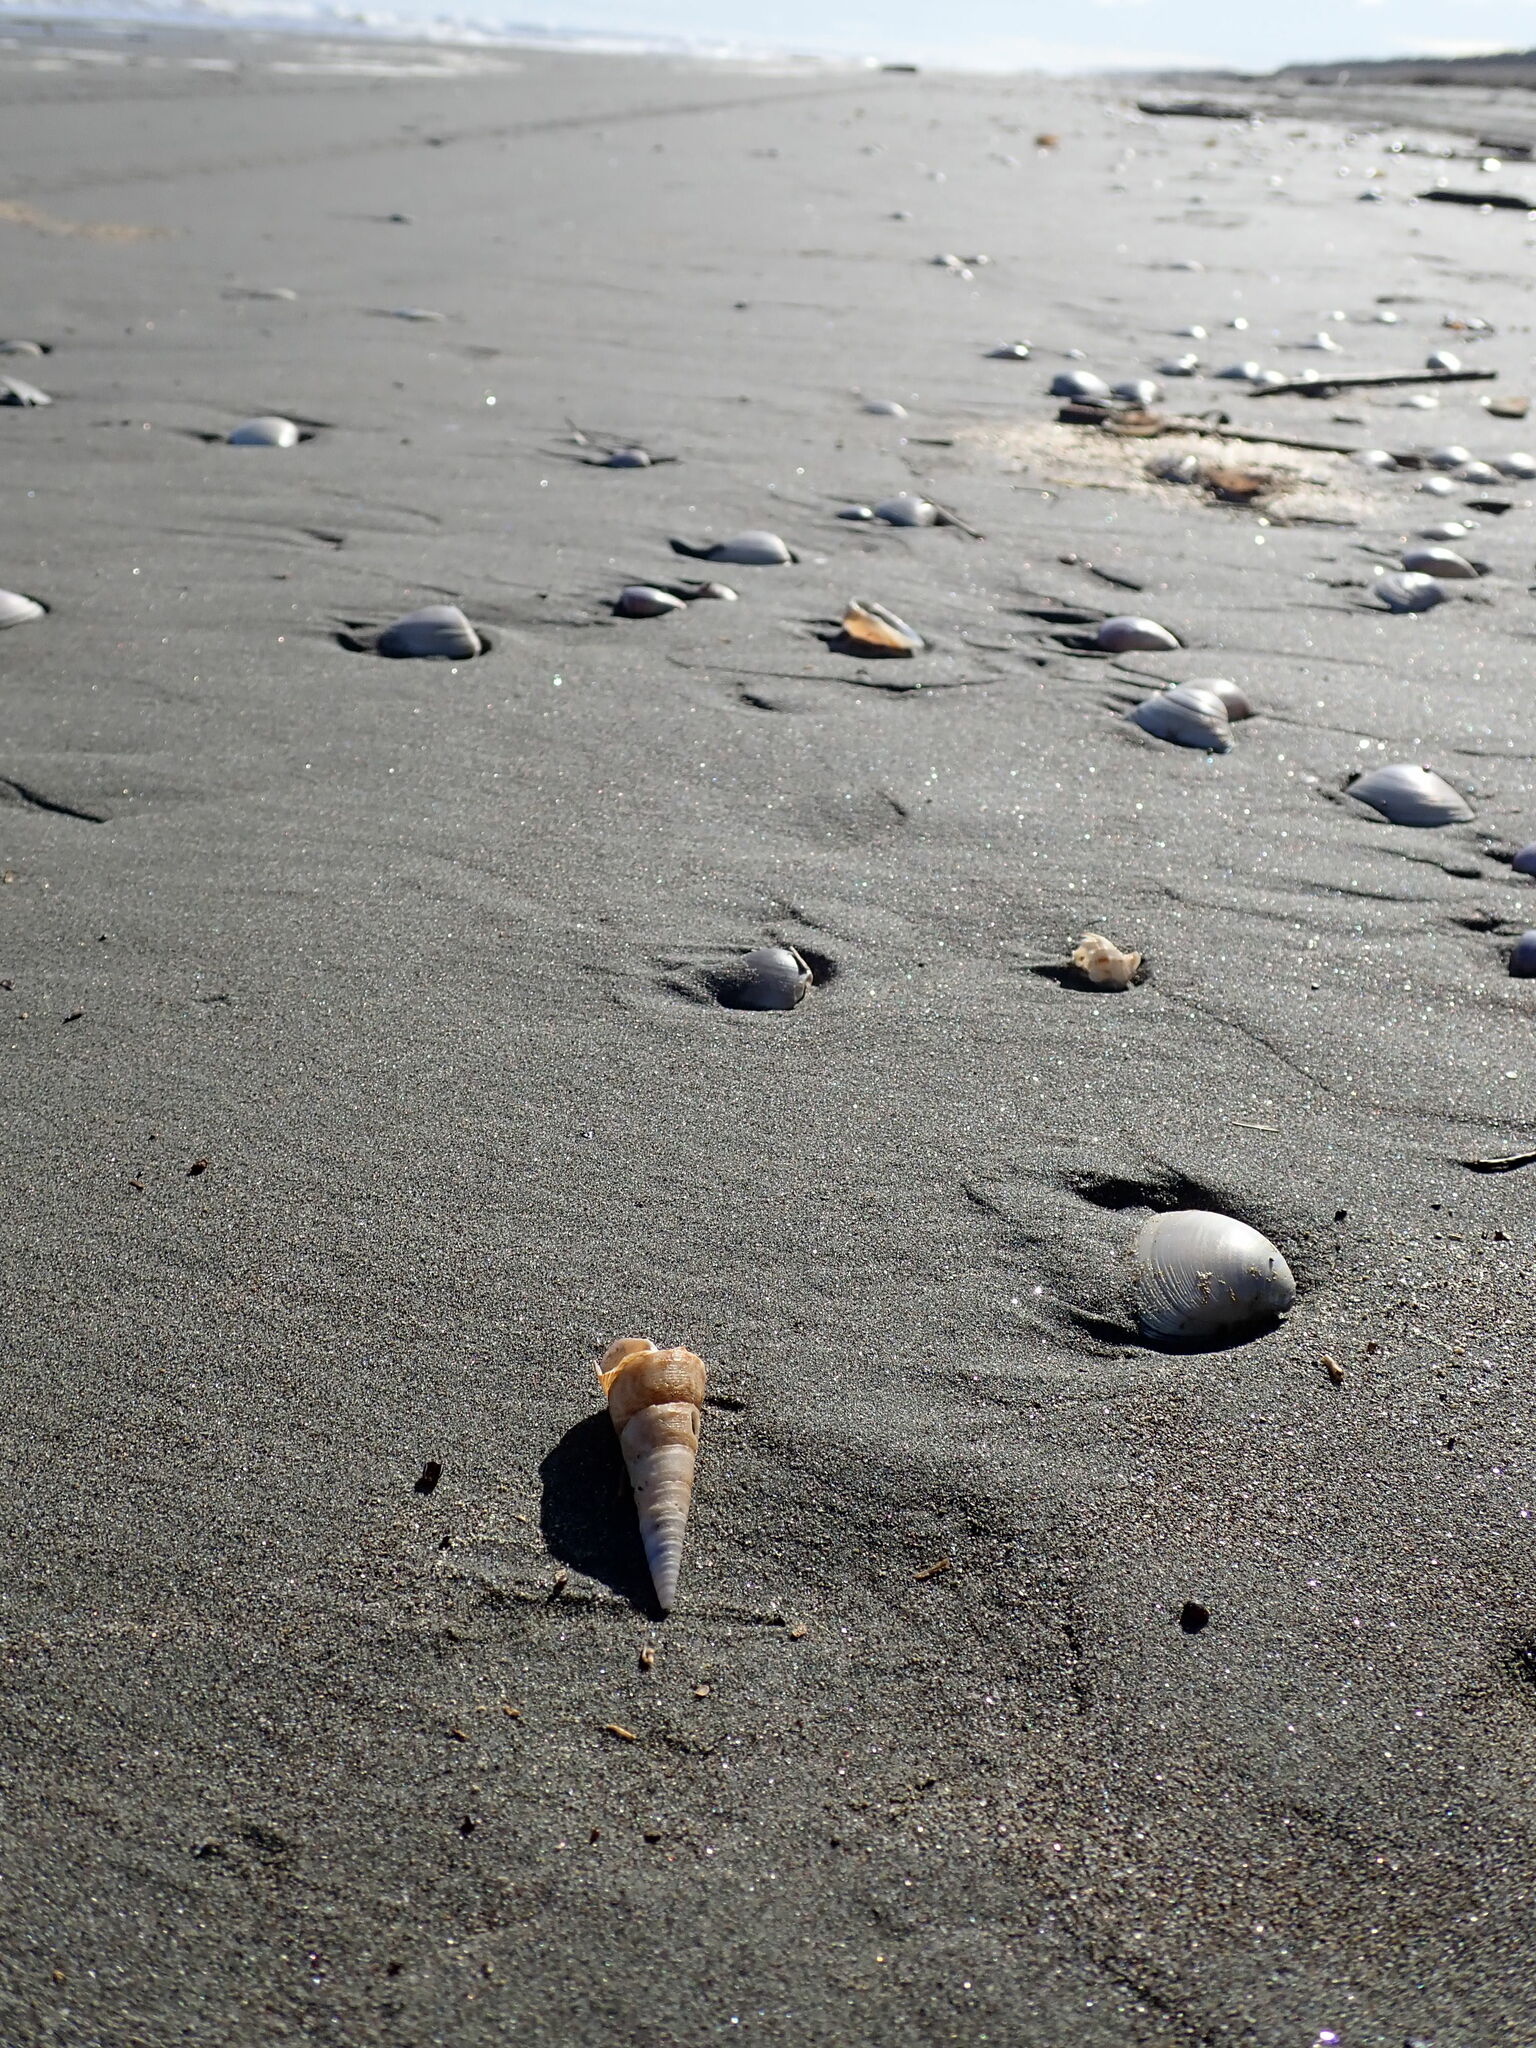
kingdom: Animalia
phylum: Mollusca
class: Gastropoda
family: Turritellidae
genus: Maoricolpus
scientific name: Maoricolpus roseus
